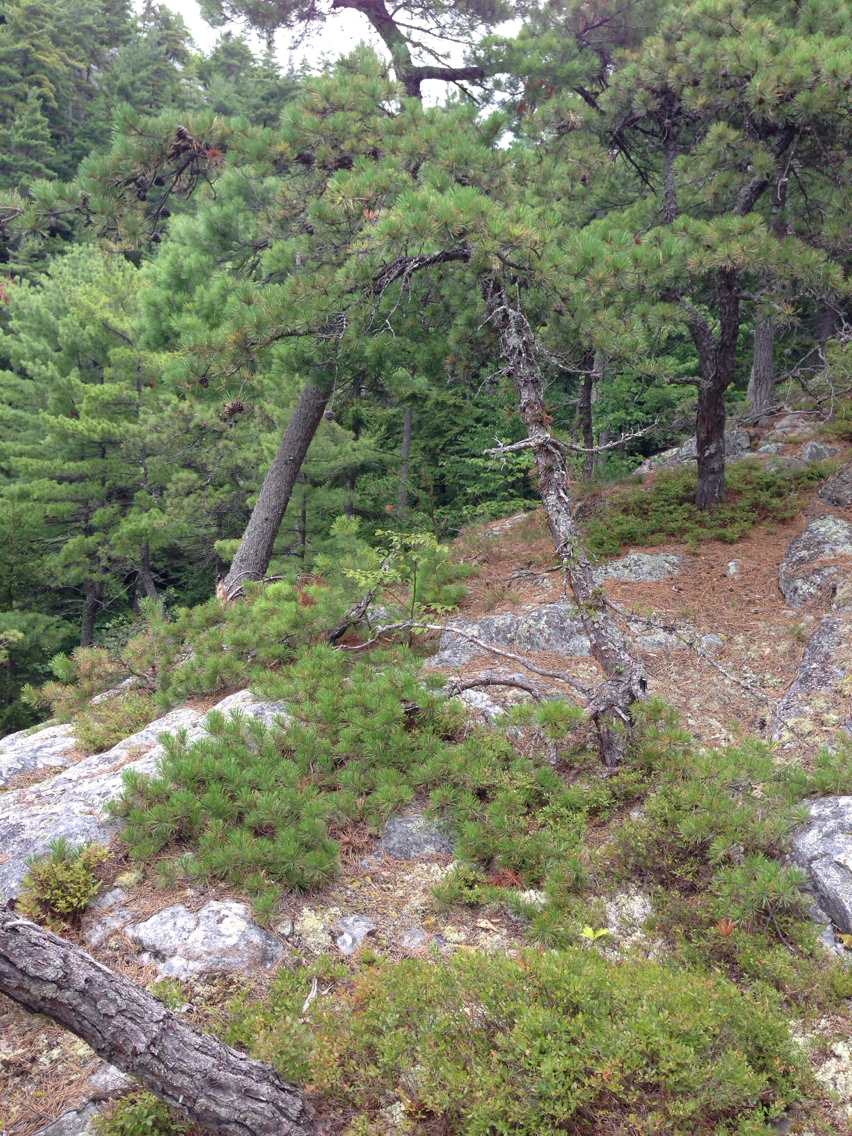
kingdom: Plantae
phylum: Tracheophyta
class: Pinopsida
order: Pinales
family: Pinaceae
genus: Pinus
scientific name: Pinus rigida
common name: Pitch pine
